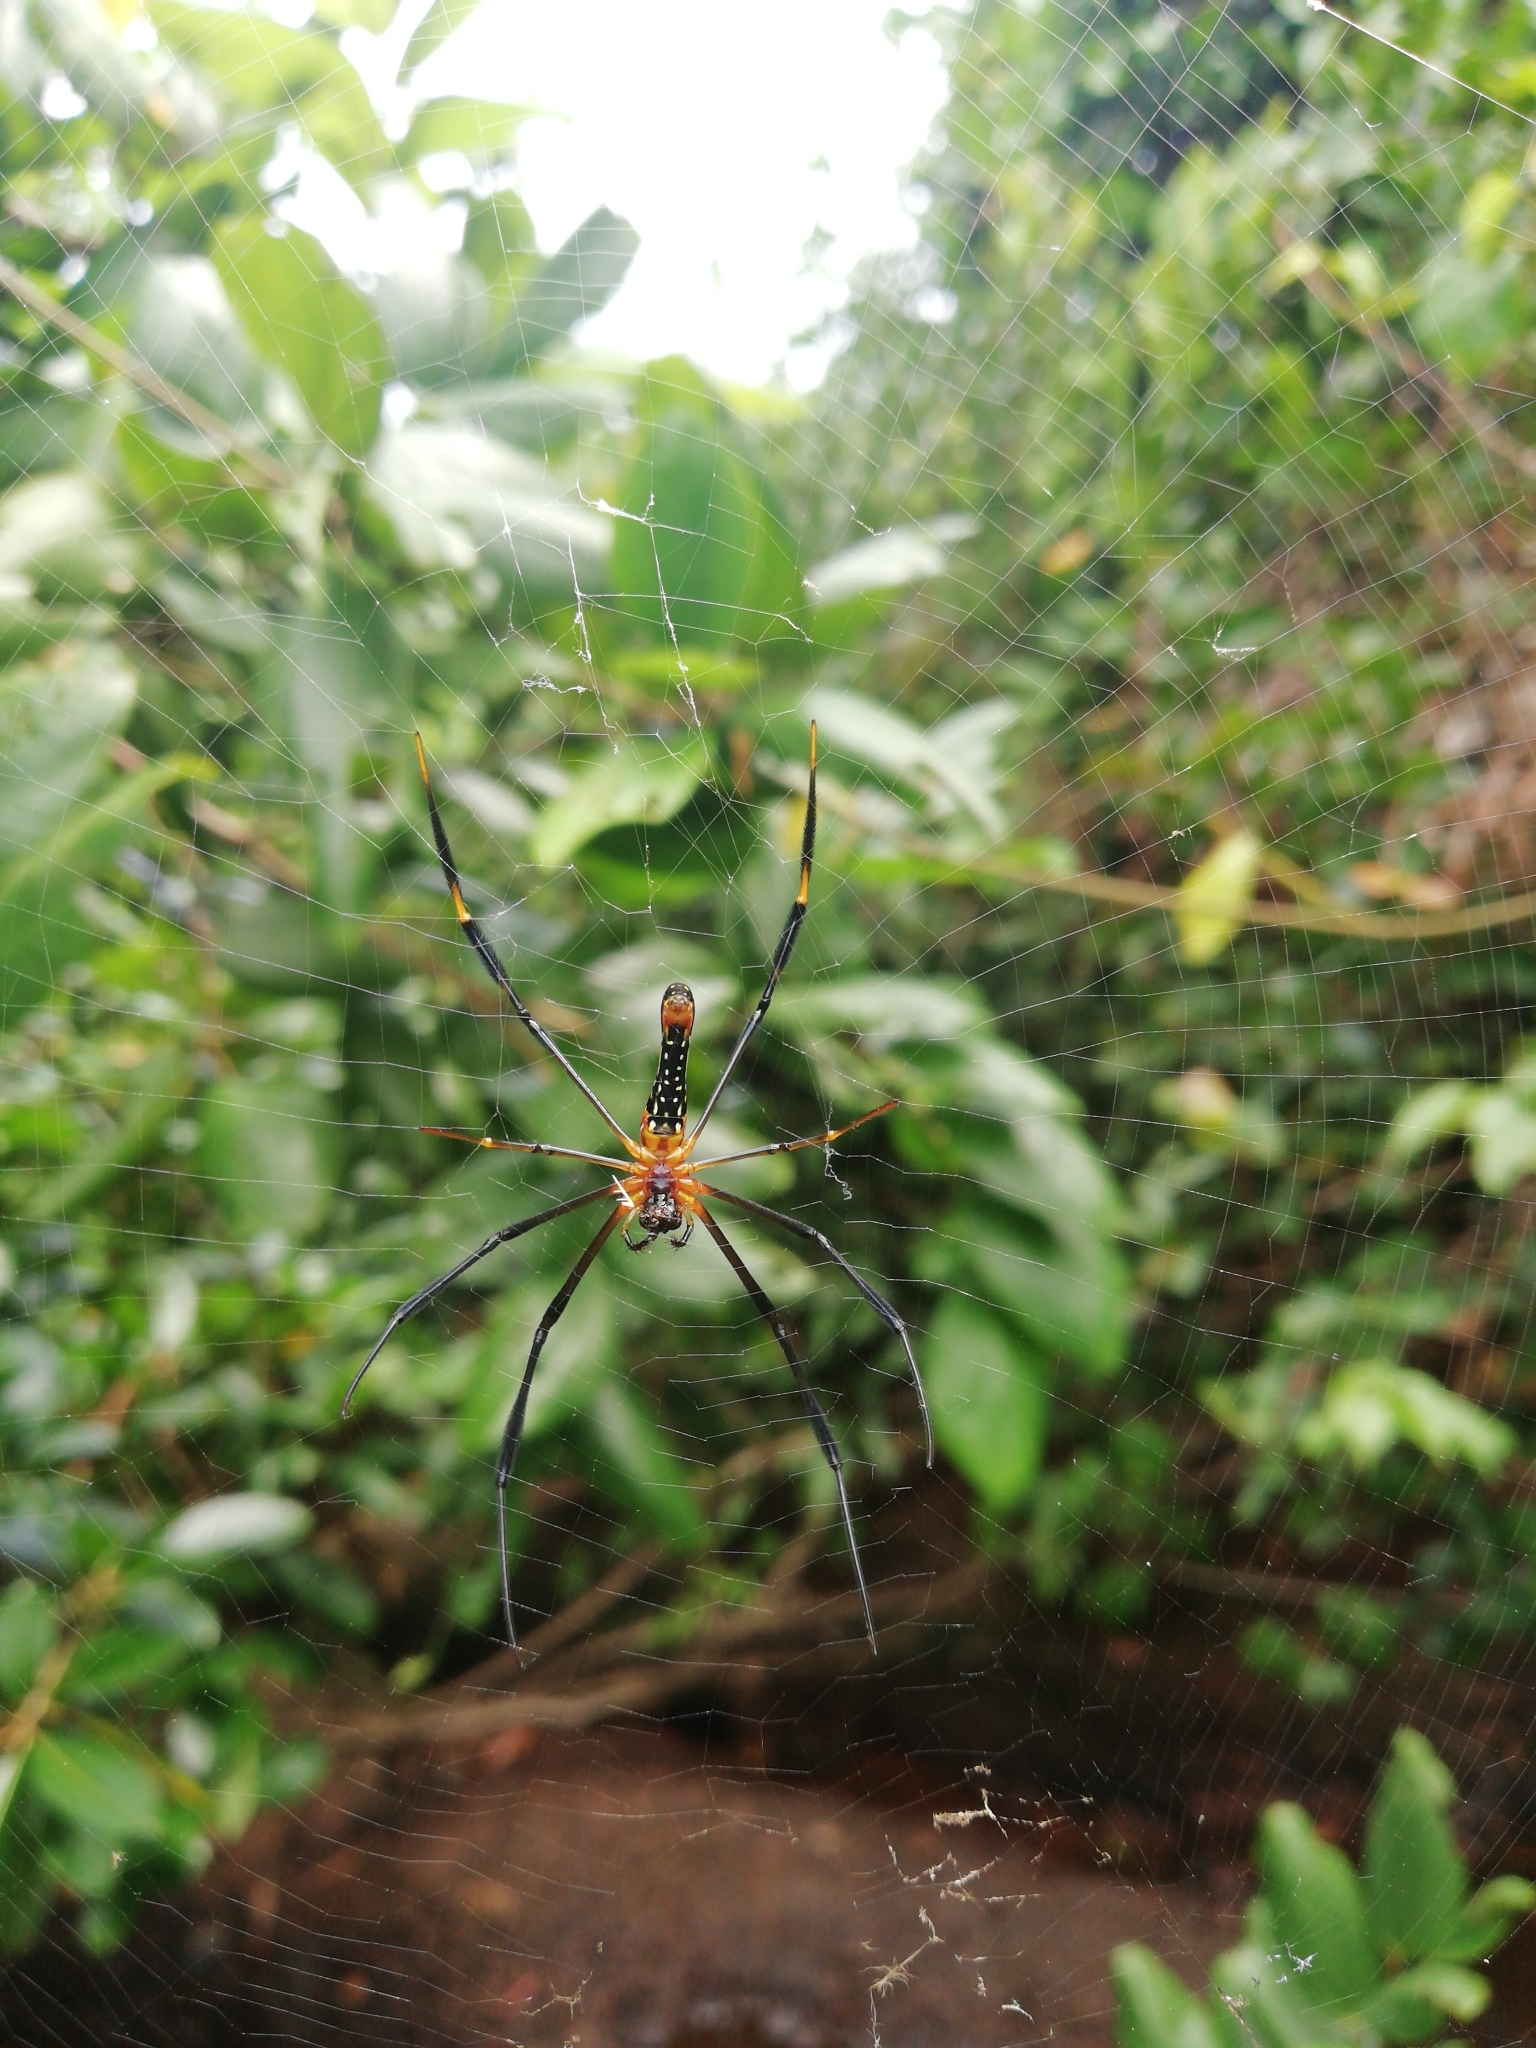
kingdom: Animalia
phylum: Arthropoda
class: Arachnida
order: Araneae
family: Araneidae
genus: Nephila
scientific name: Nephila pilipes
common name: Giant golden orb weaver
